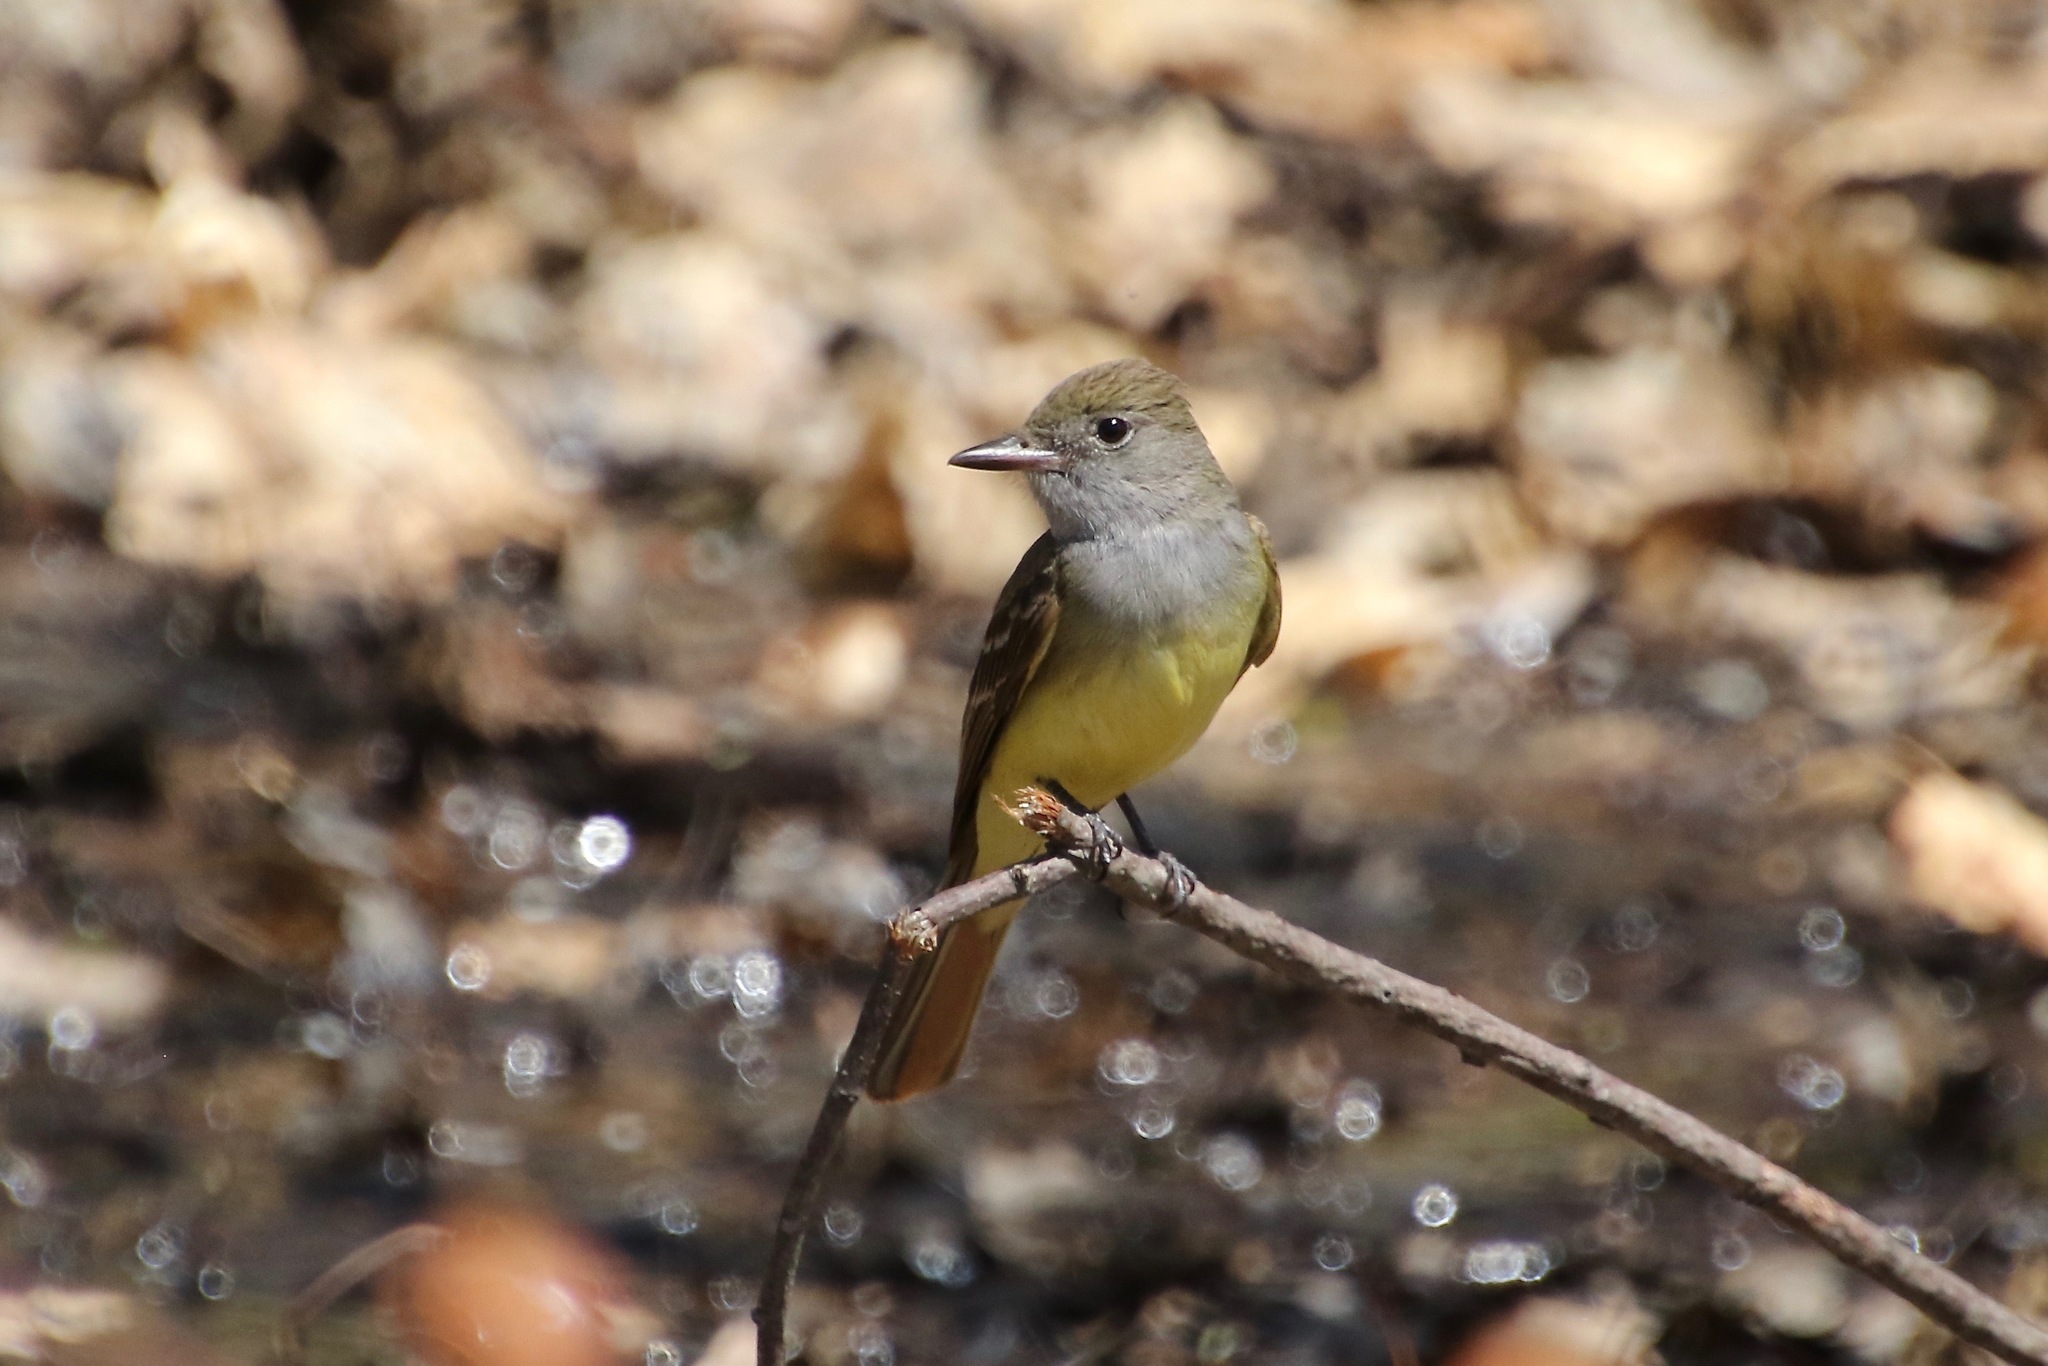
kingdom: Animalia
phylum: Chordata
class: Aves
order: Passeriformes
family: Tyrannidae
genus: Myiarchus
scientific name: Myiarchus crinitus
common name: Great crested flycatcher
